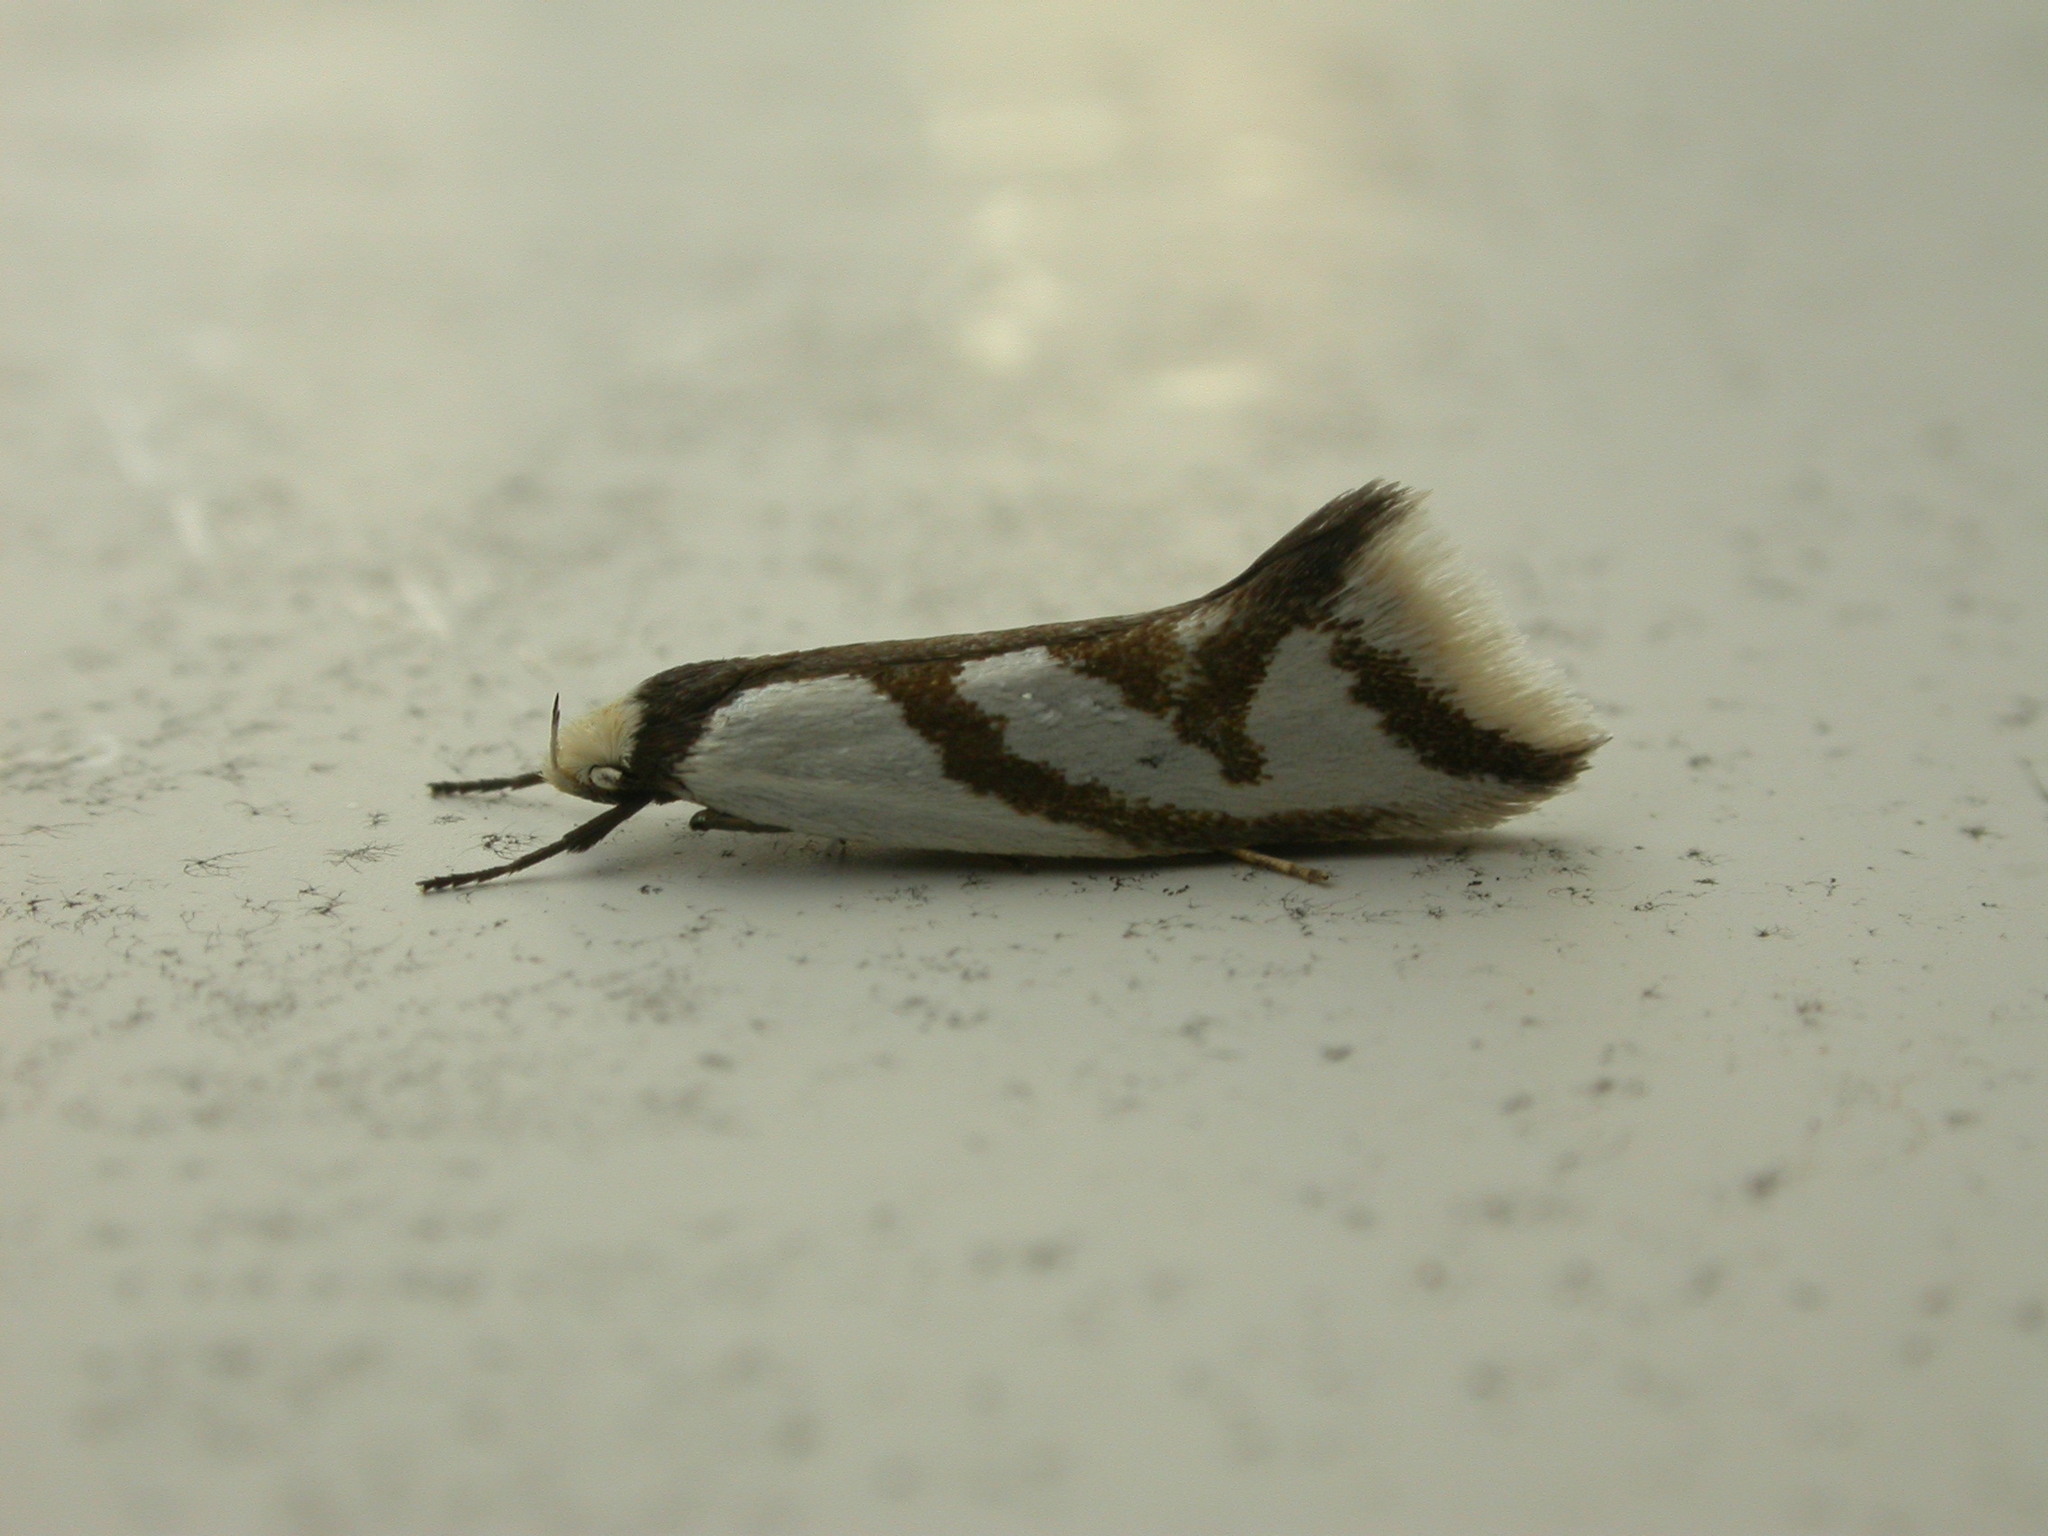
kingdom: Animalia
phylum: Arthropoda
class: Insecta
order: Lepidoptera
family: Oecophoridae
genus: Ocystola
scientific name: Ocystola paulinella
